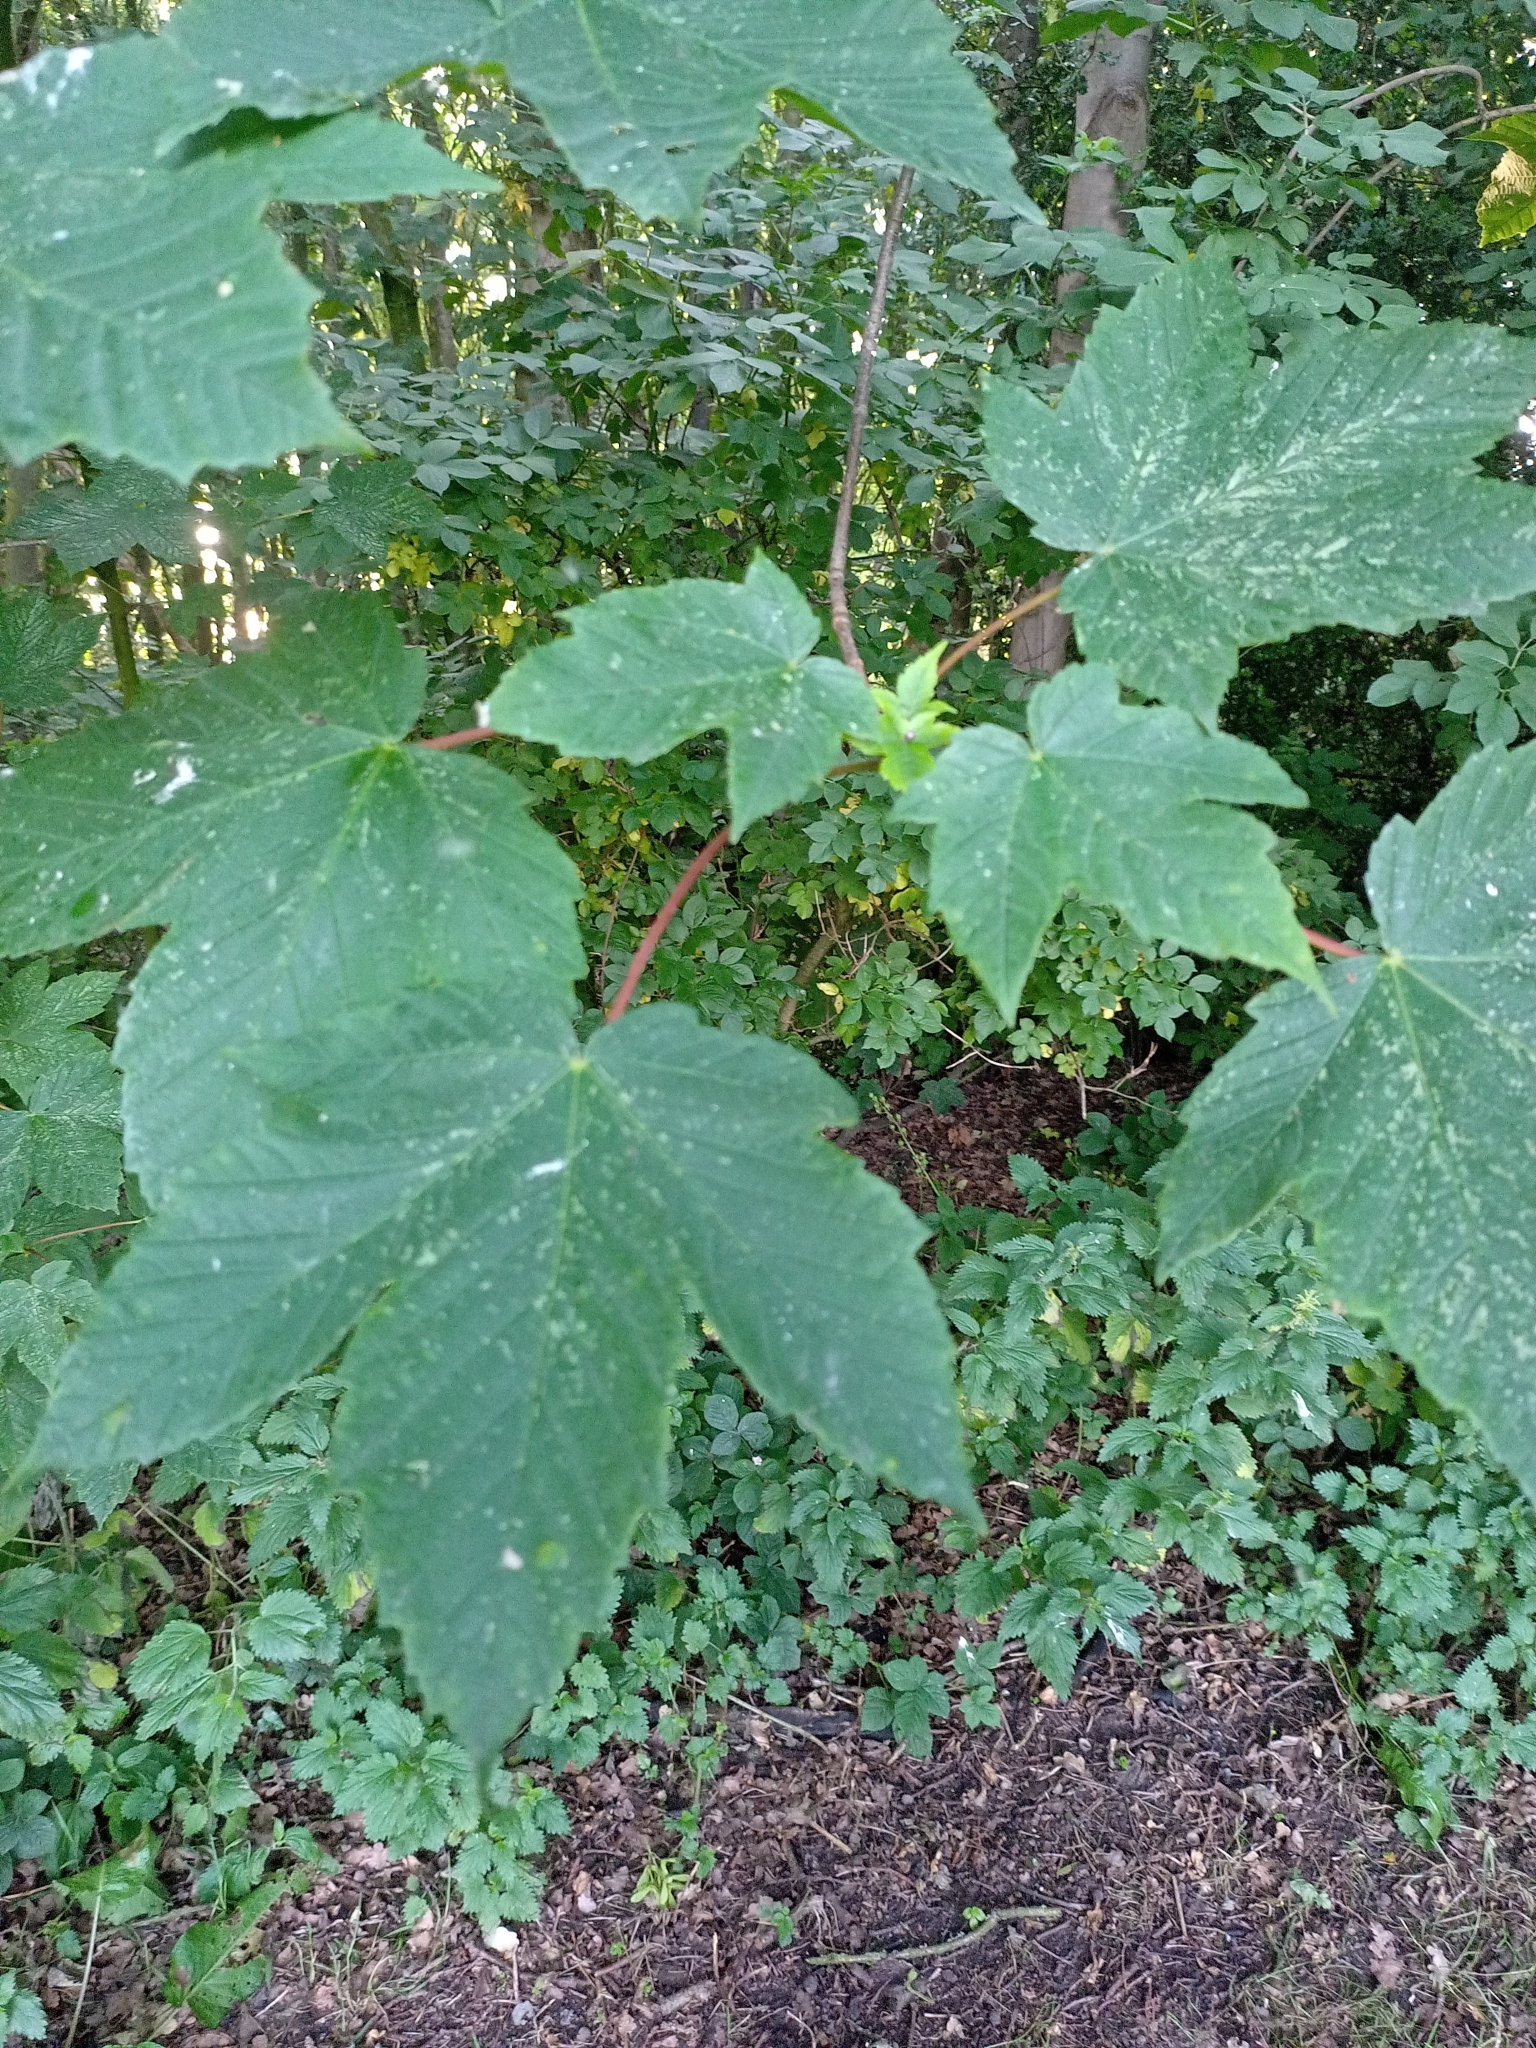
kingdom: Plantae
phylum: Tracheophyta
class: Magnoliopsida
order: Sapindales
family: Sapindaceae
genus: Acer
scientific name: Acer pseudoplatanus
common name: Sycamore
